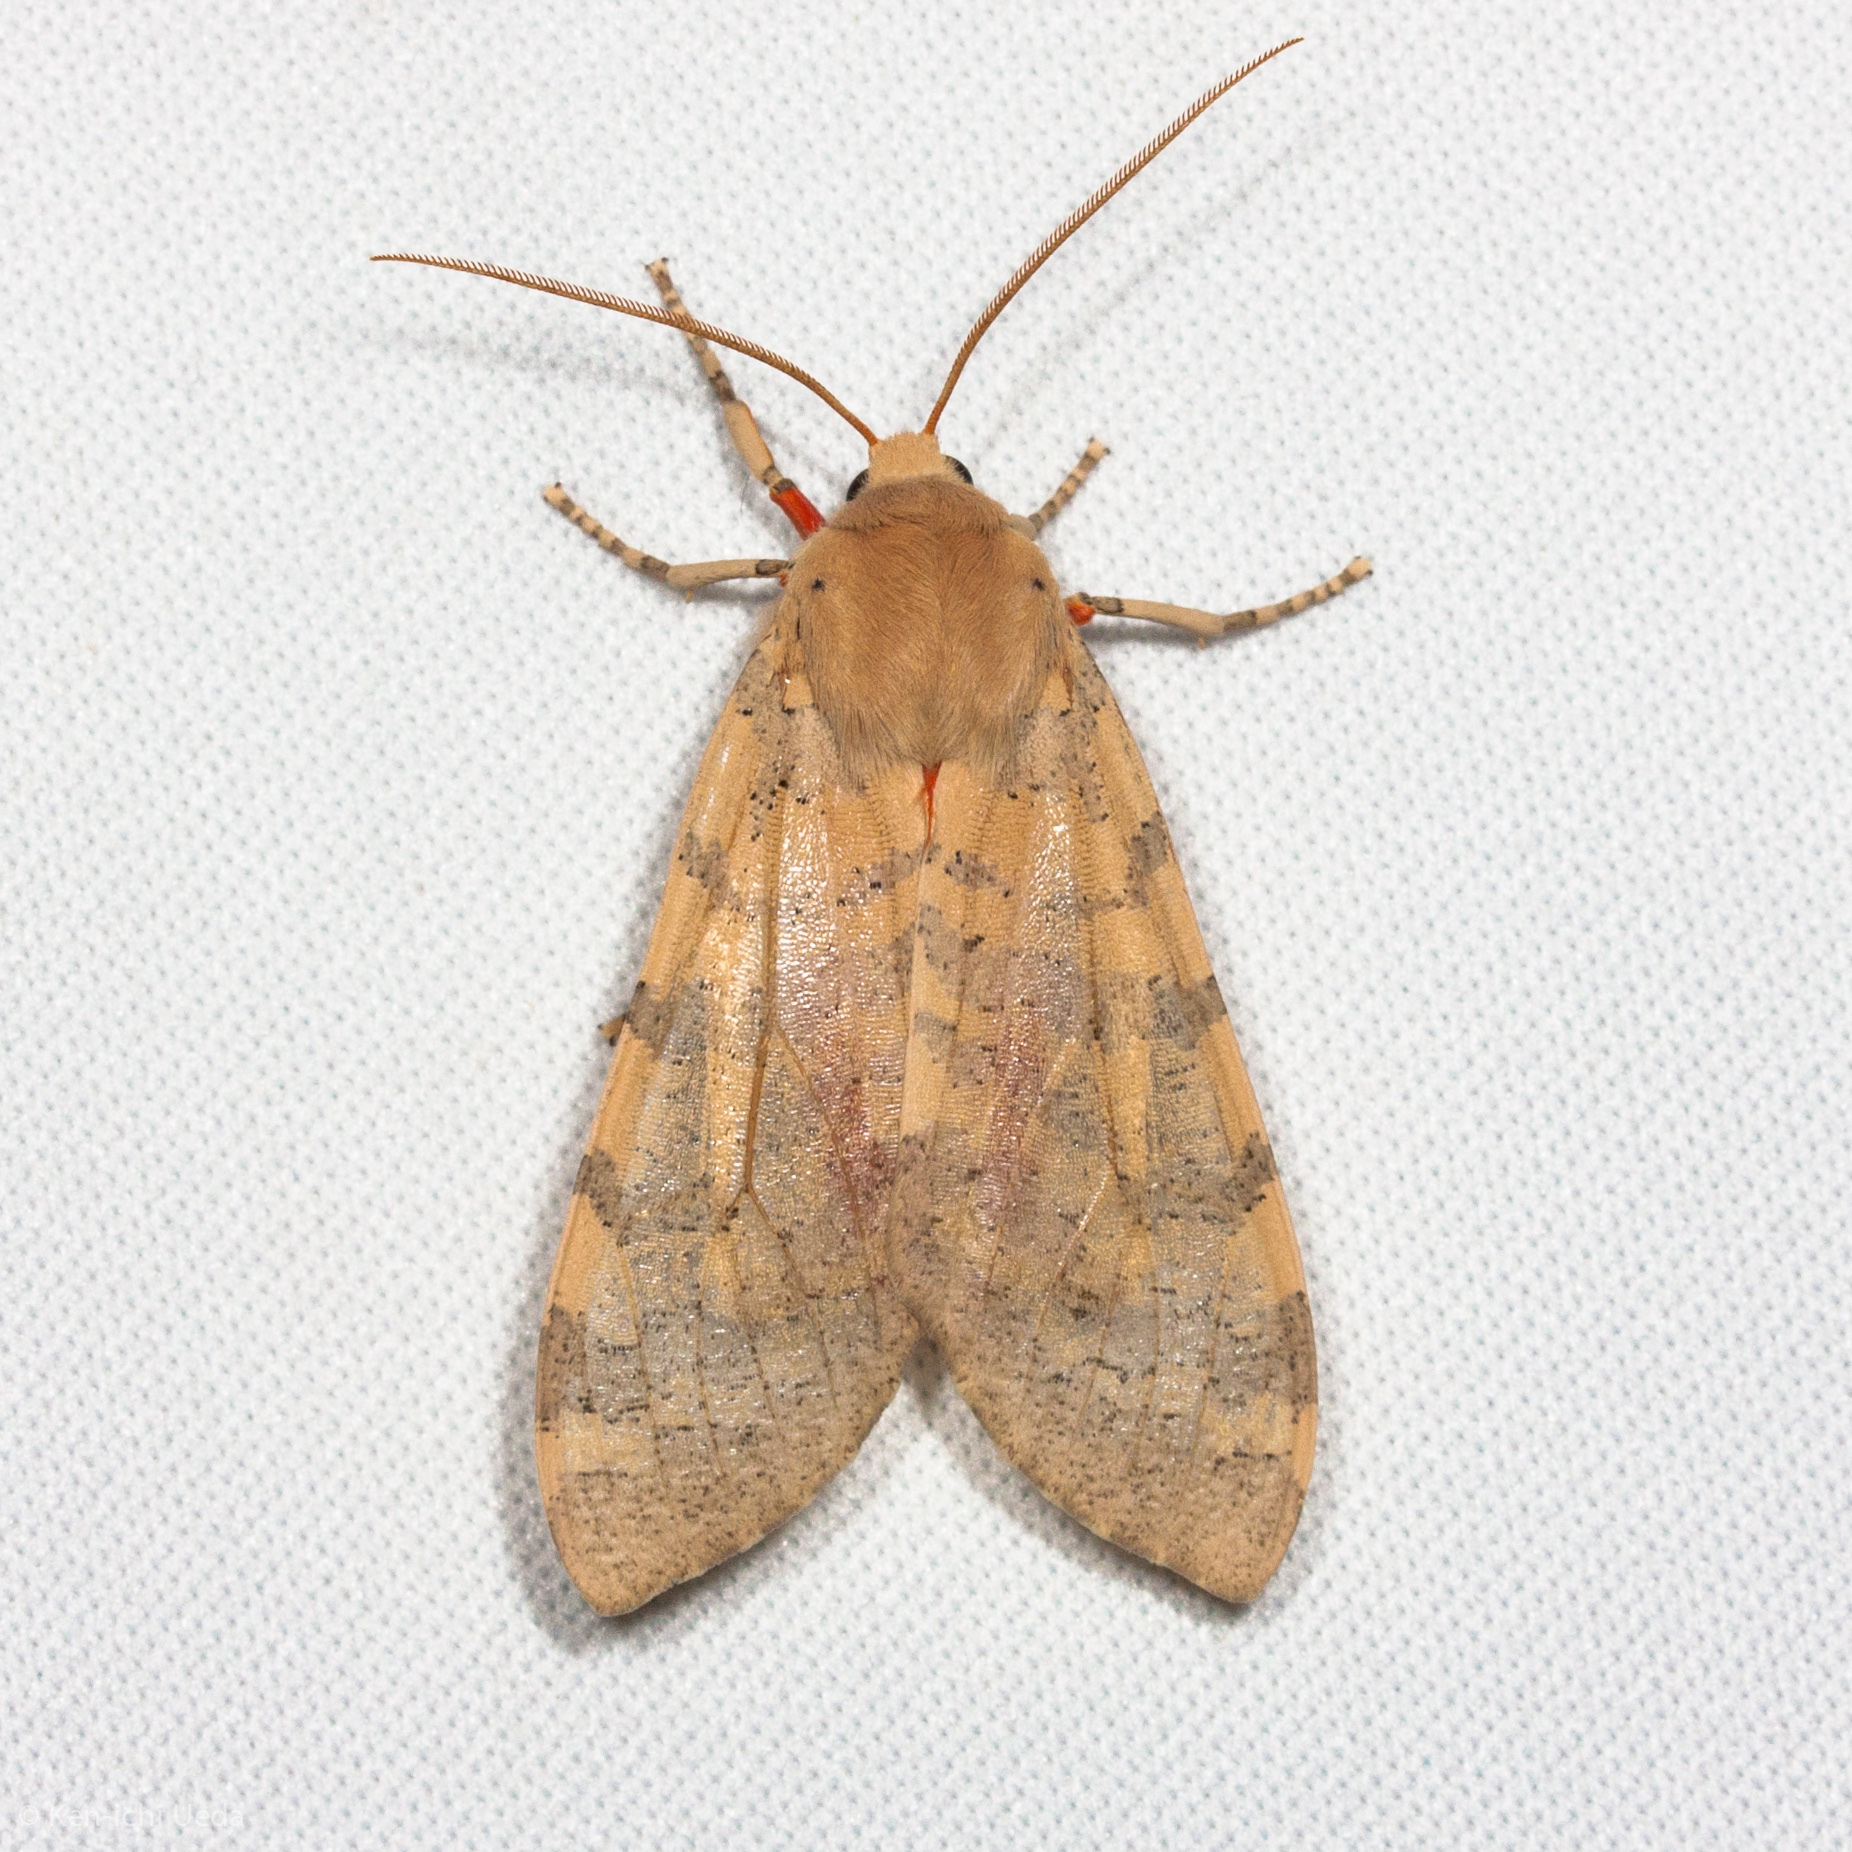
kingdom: Animalia
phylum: Arthropoda
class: Insecta
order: Lepidoptera
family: Erebidae
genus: Hemihyalea
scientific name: Hemihyalea edwardsii
